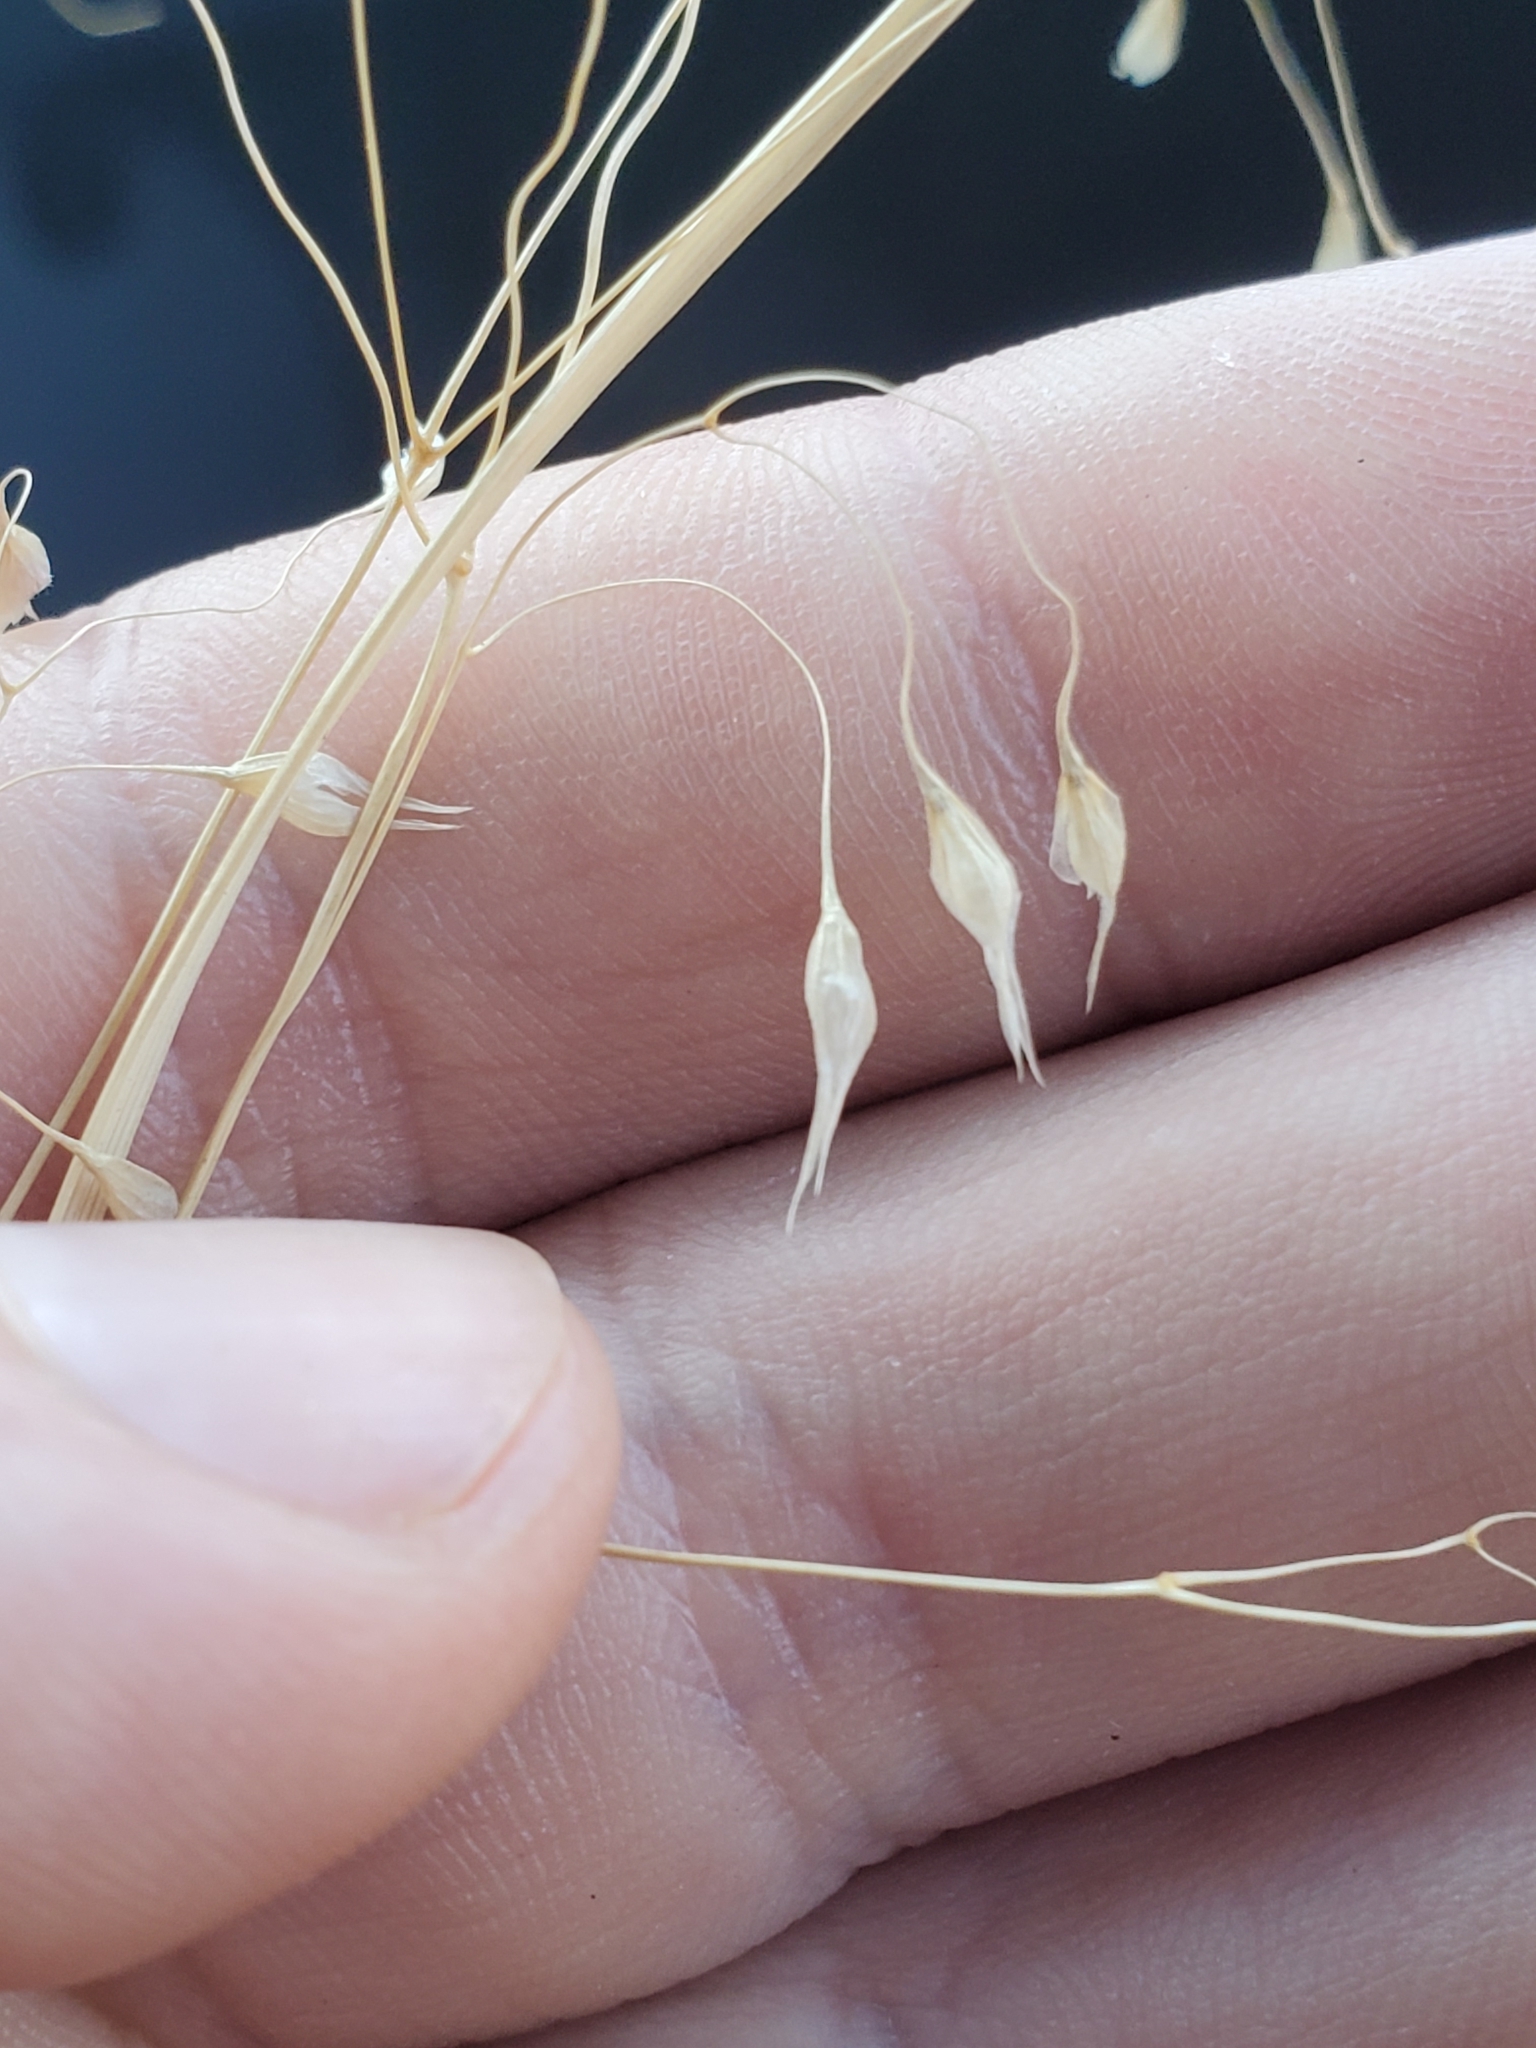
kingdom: Plantae
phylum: Tracheophyta
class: Liliopsida
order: Poales
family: Poaceae
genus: Eriocoma
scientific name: Eriocoma hymenoides
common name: Indian mountain ricegrass
